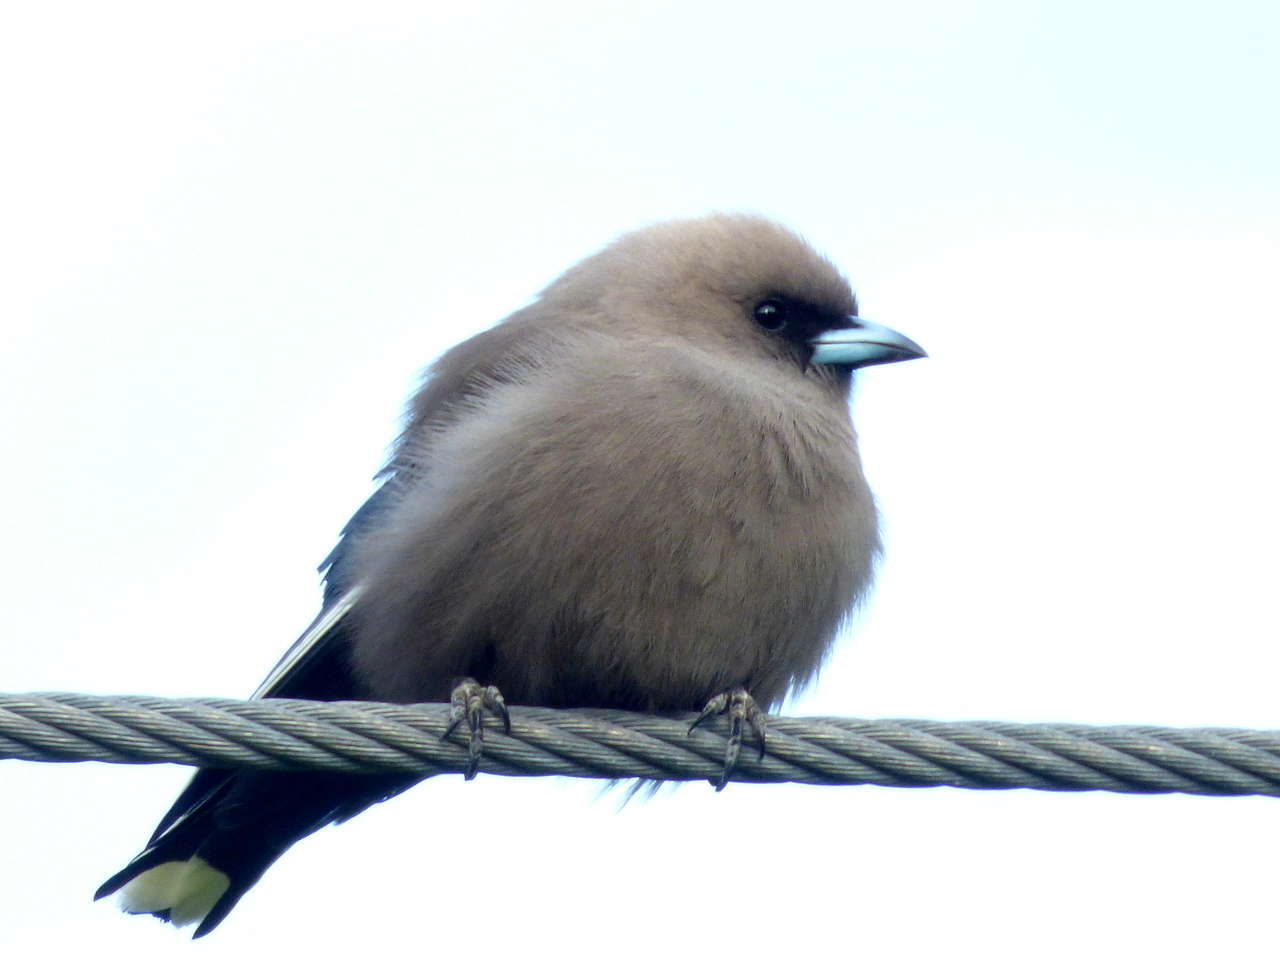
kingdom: Animalia
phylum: Chordata
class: Aves
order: Passeriformes
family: Artamidae
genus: Artamus
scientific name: Artamus cyanopterus
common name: Dusky woodswallow
